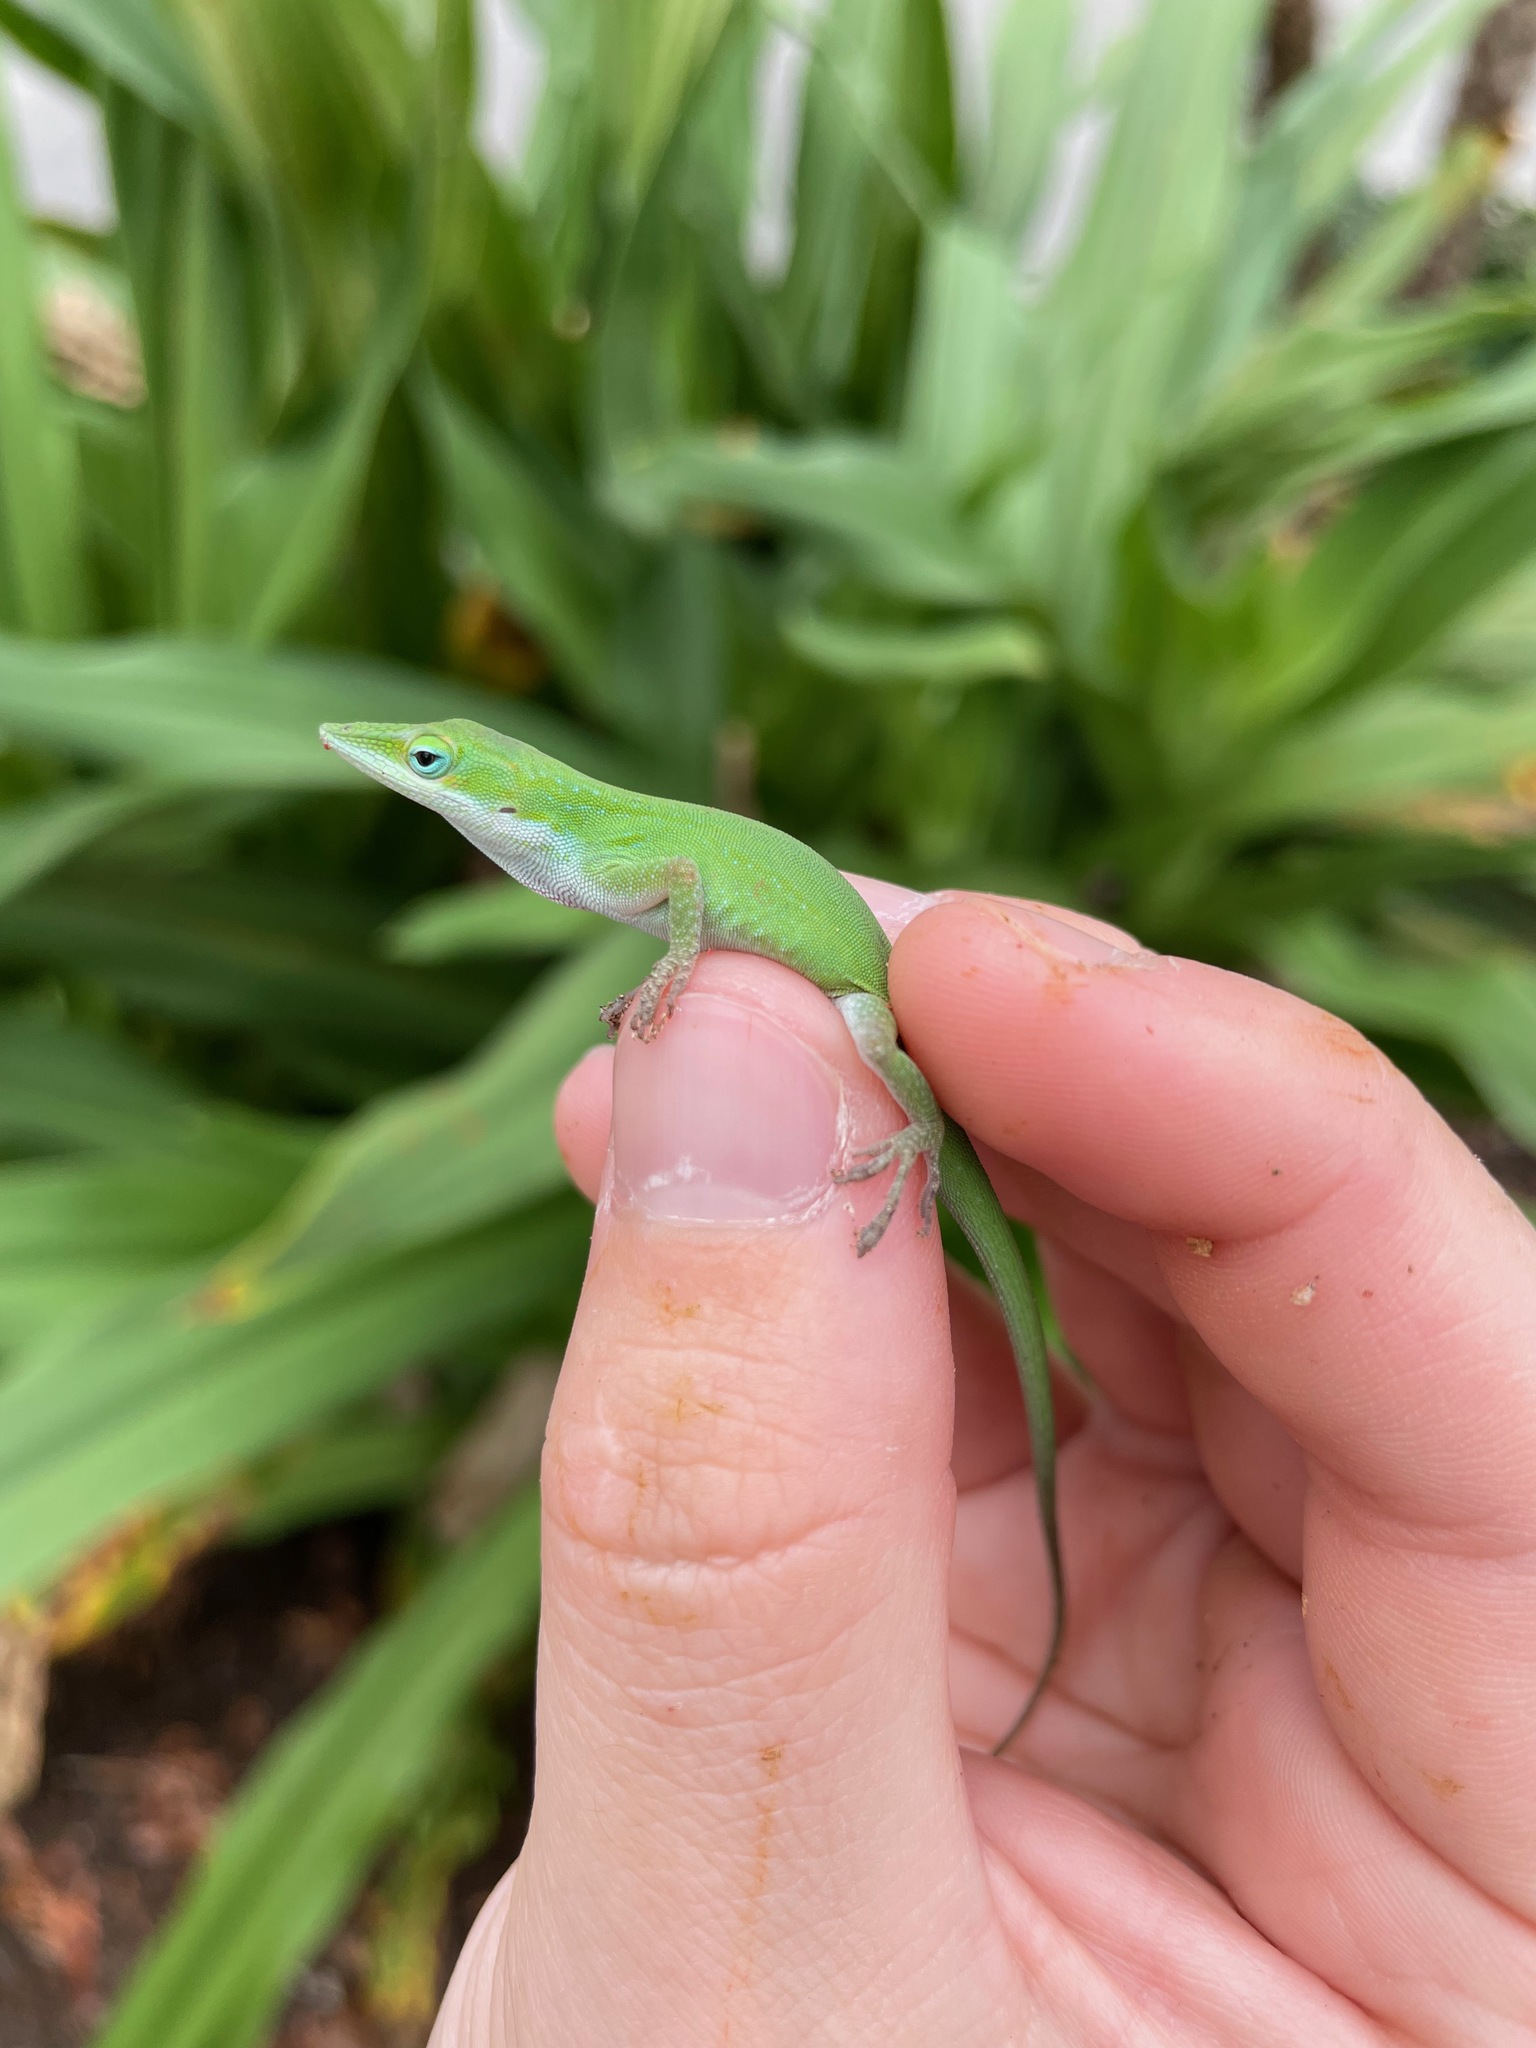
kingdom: Animalia
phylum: Chordata
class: Squamata
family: Dactyloidae
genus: Anolis
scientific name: Anolis carolinensis
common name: Green anole
